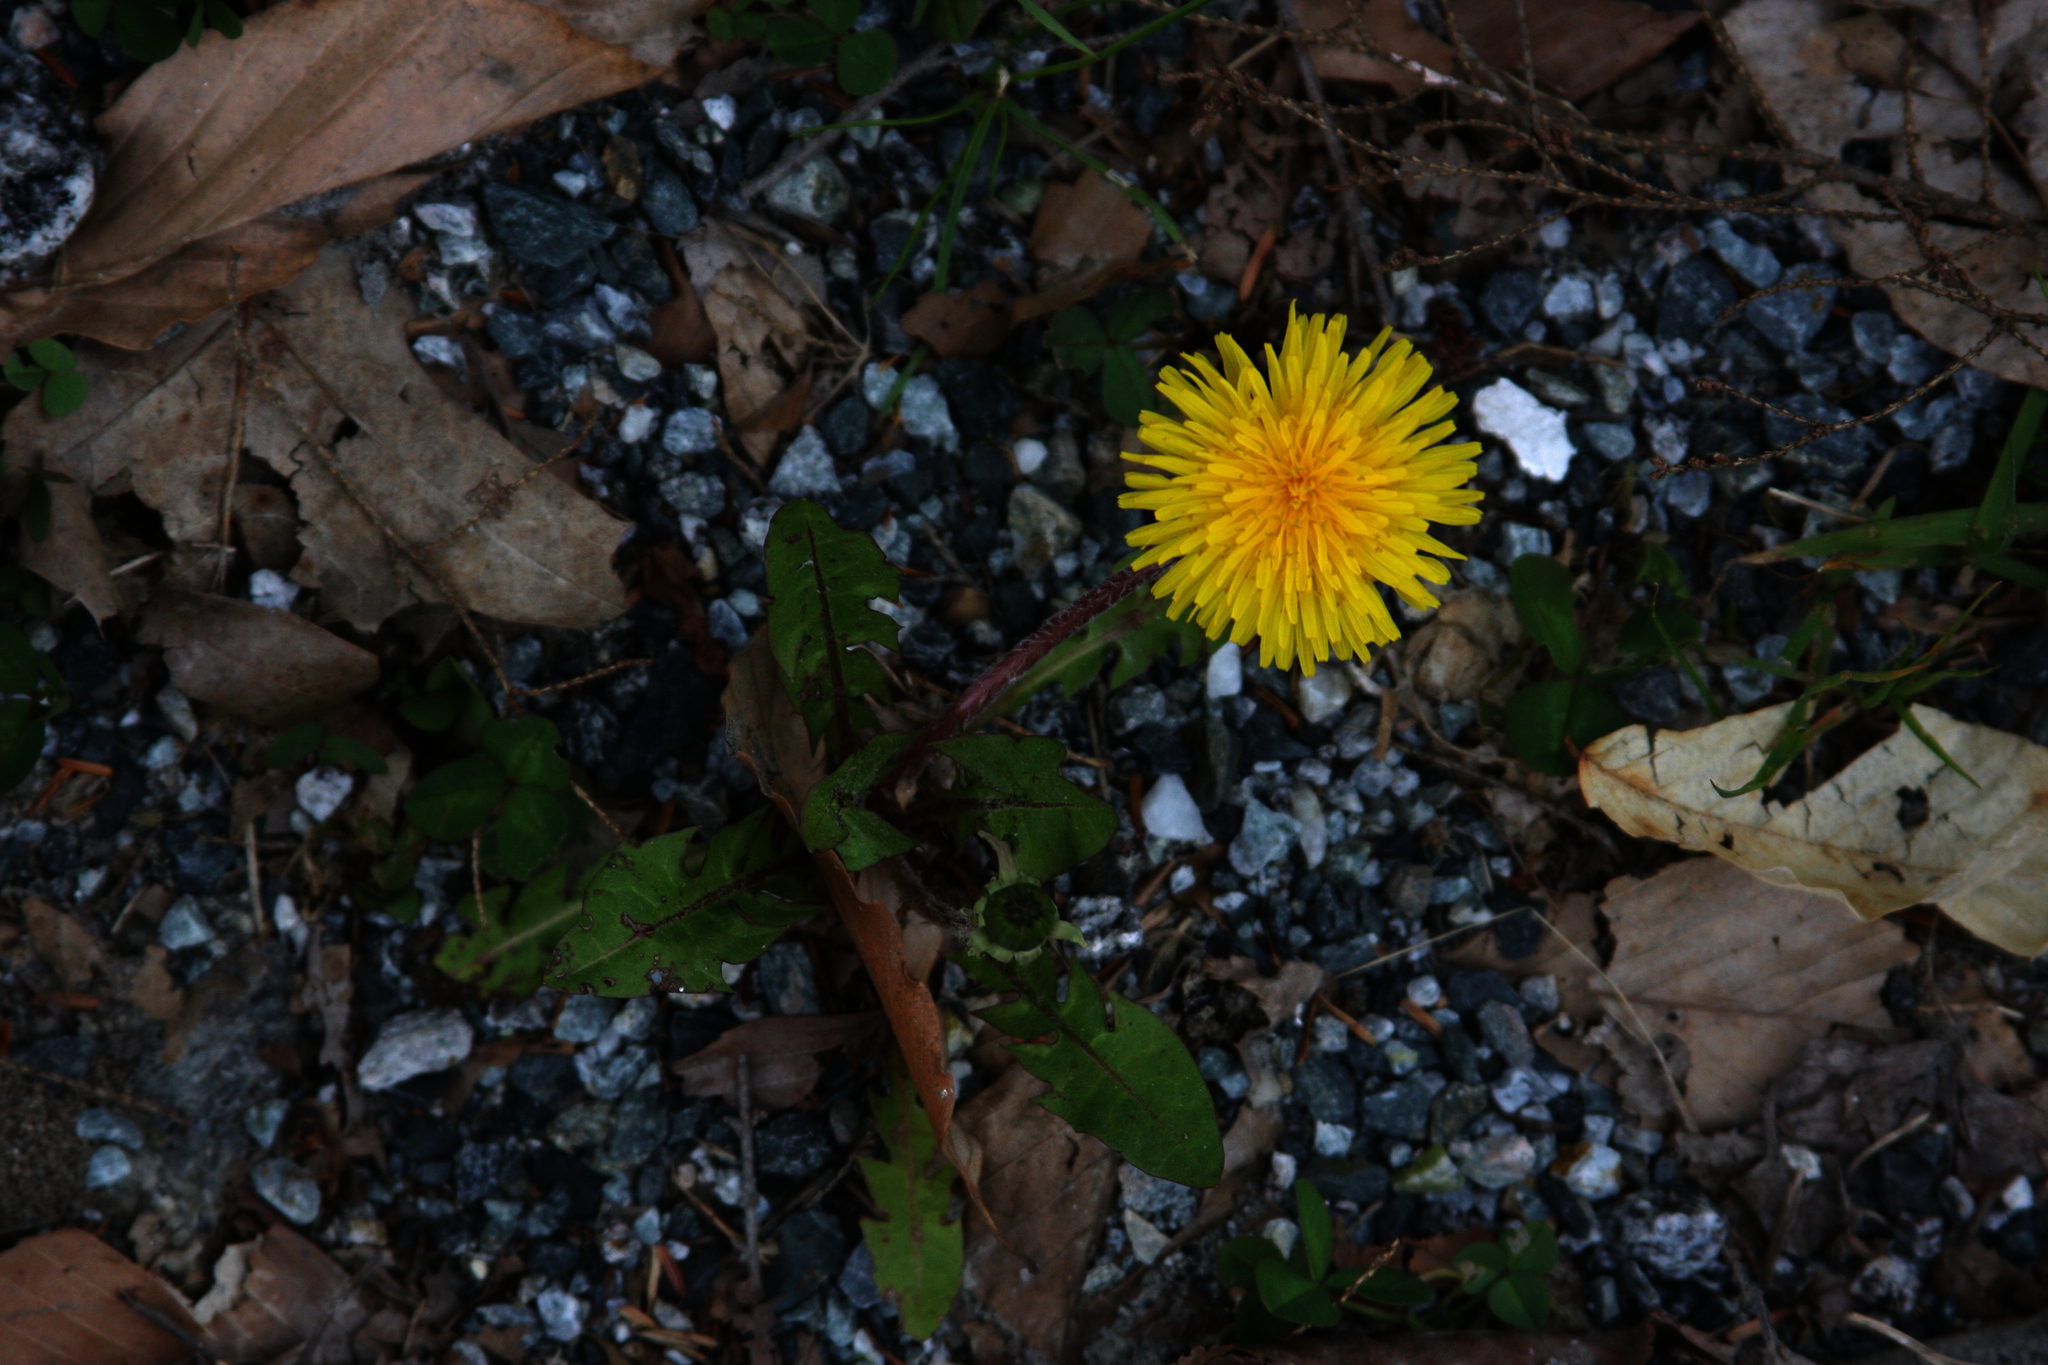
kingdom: Plantae
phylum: Tracheophyta
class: Magnoliopsida
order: Asterales
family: Asteraceae
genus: Taraxacum
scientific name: Taraxacum officinale
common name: Common dandelion
